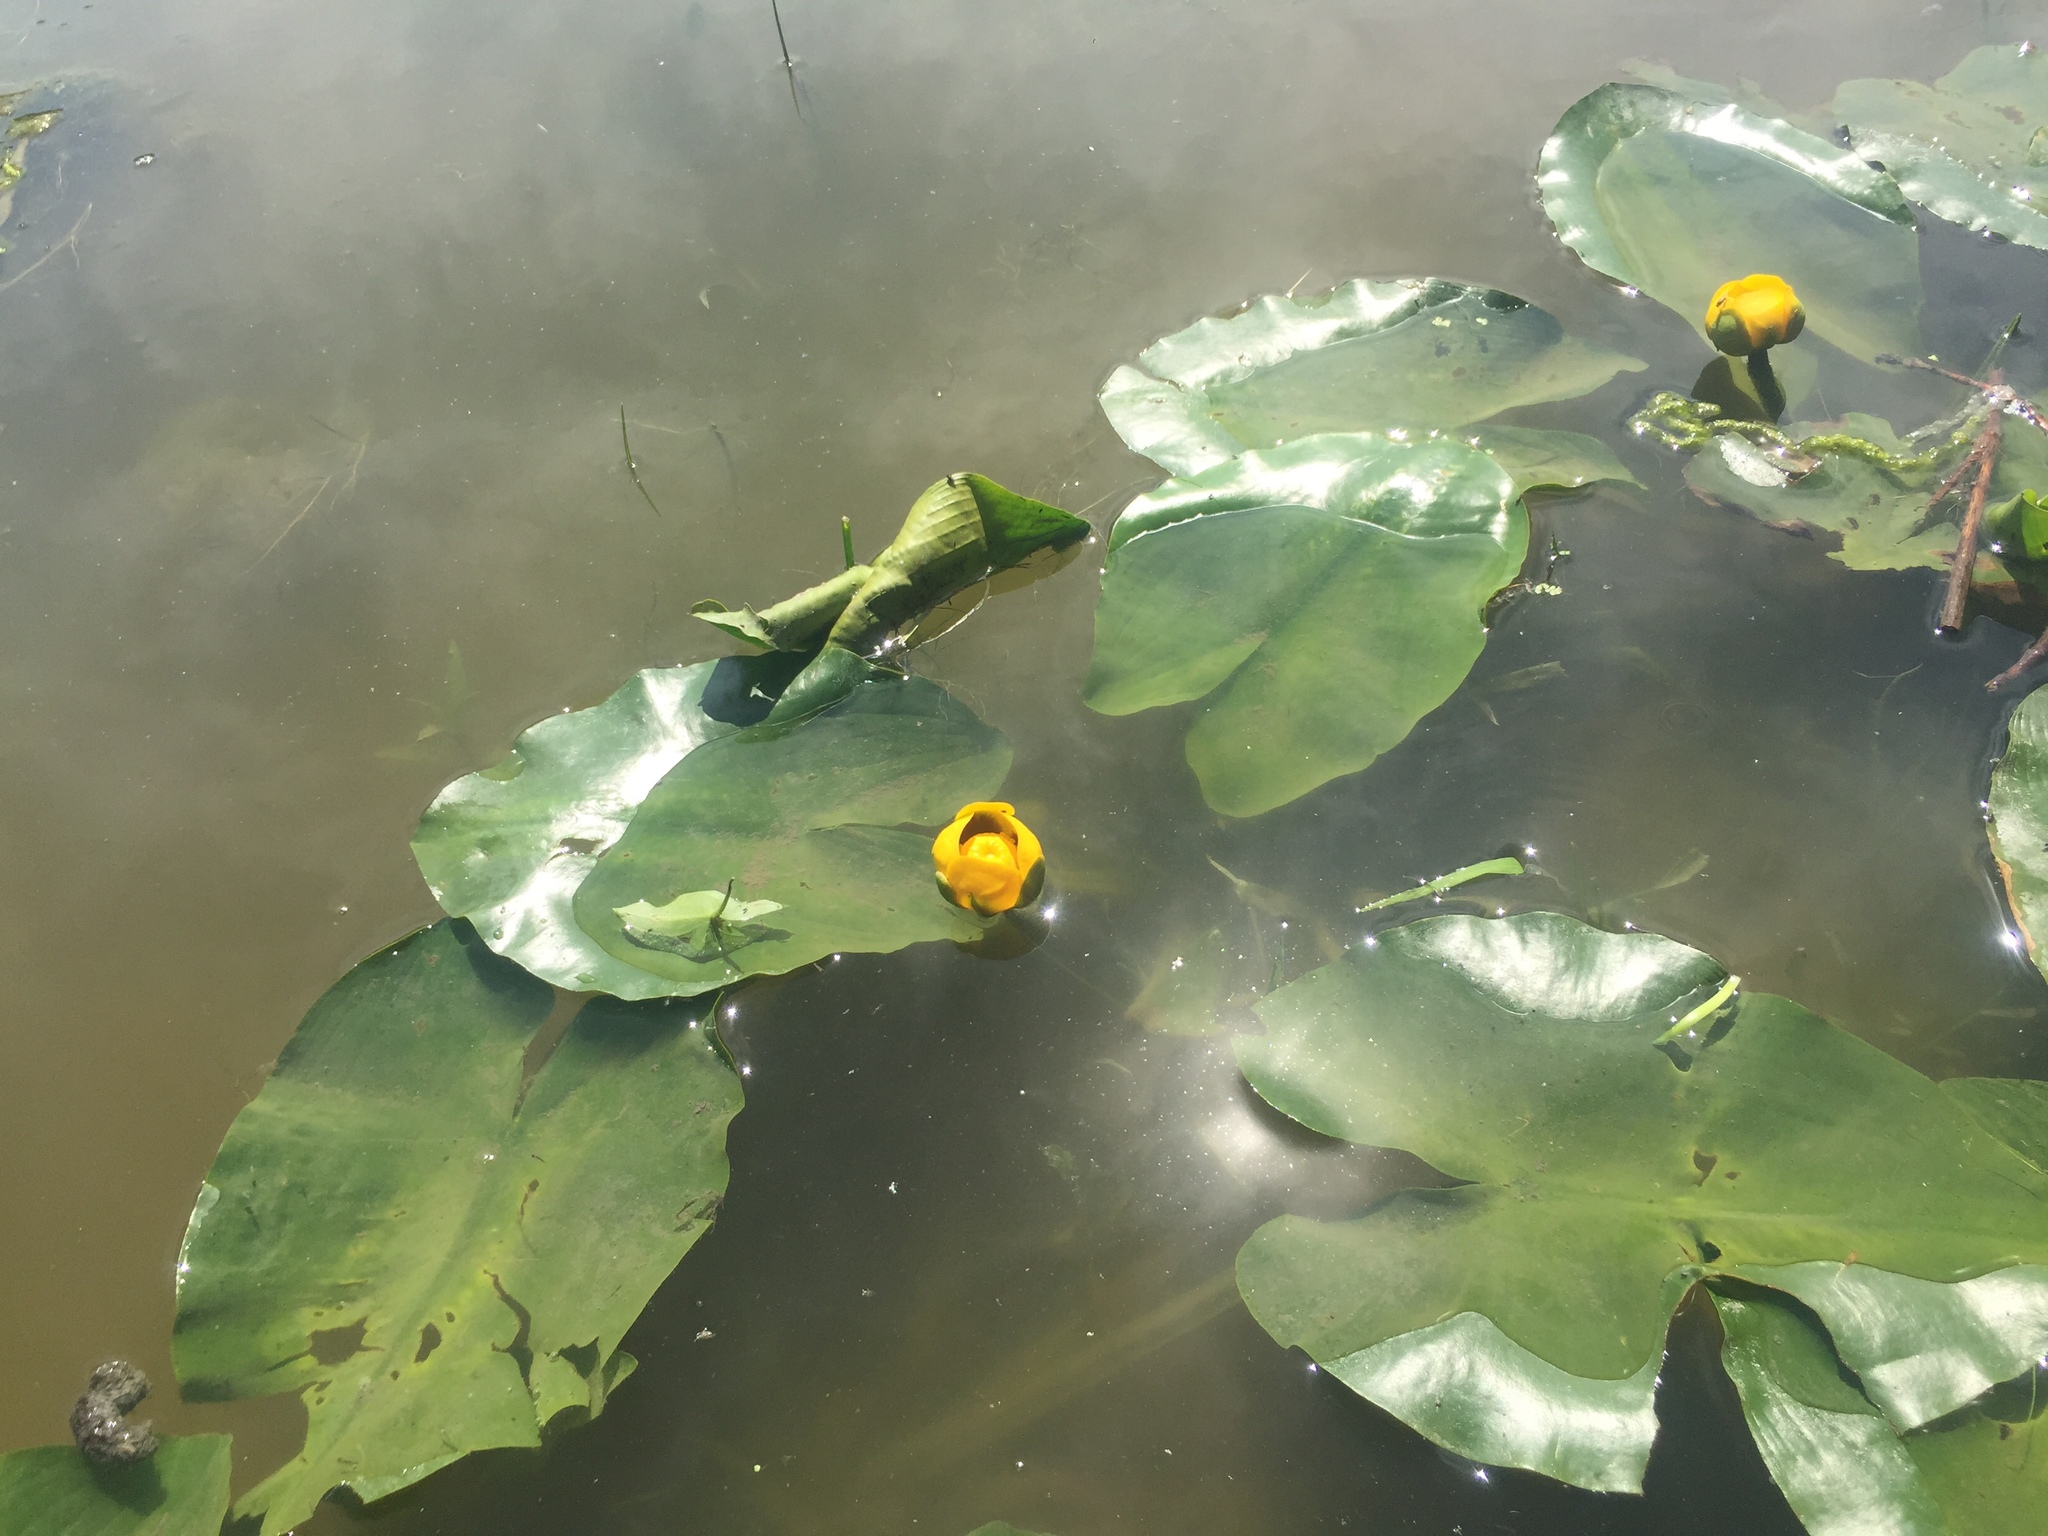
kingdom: Plantae
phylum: Tracheophyta
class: Magnoliopsida
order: Nymphaeales
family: Nymphaeaceae
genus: Nuphar
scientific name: Nuphar variegata
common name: Beaver-root
